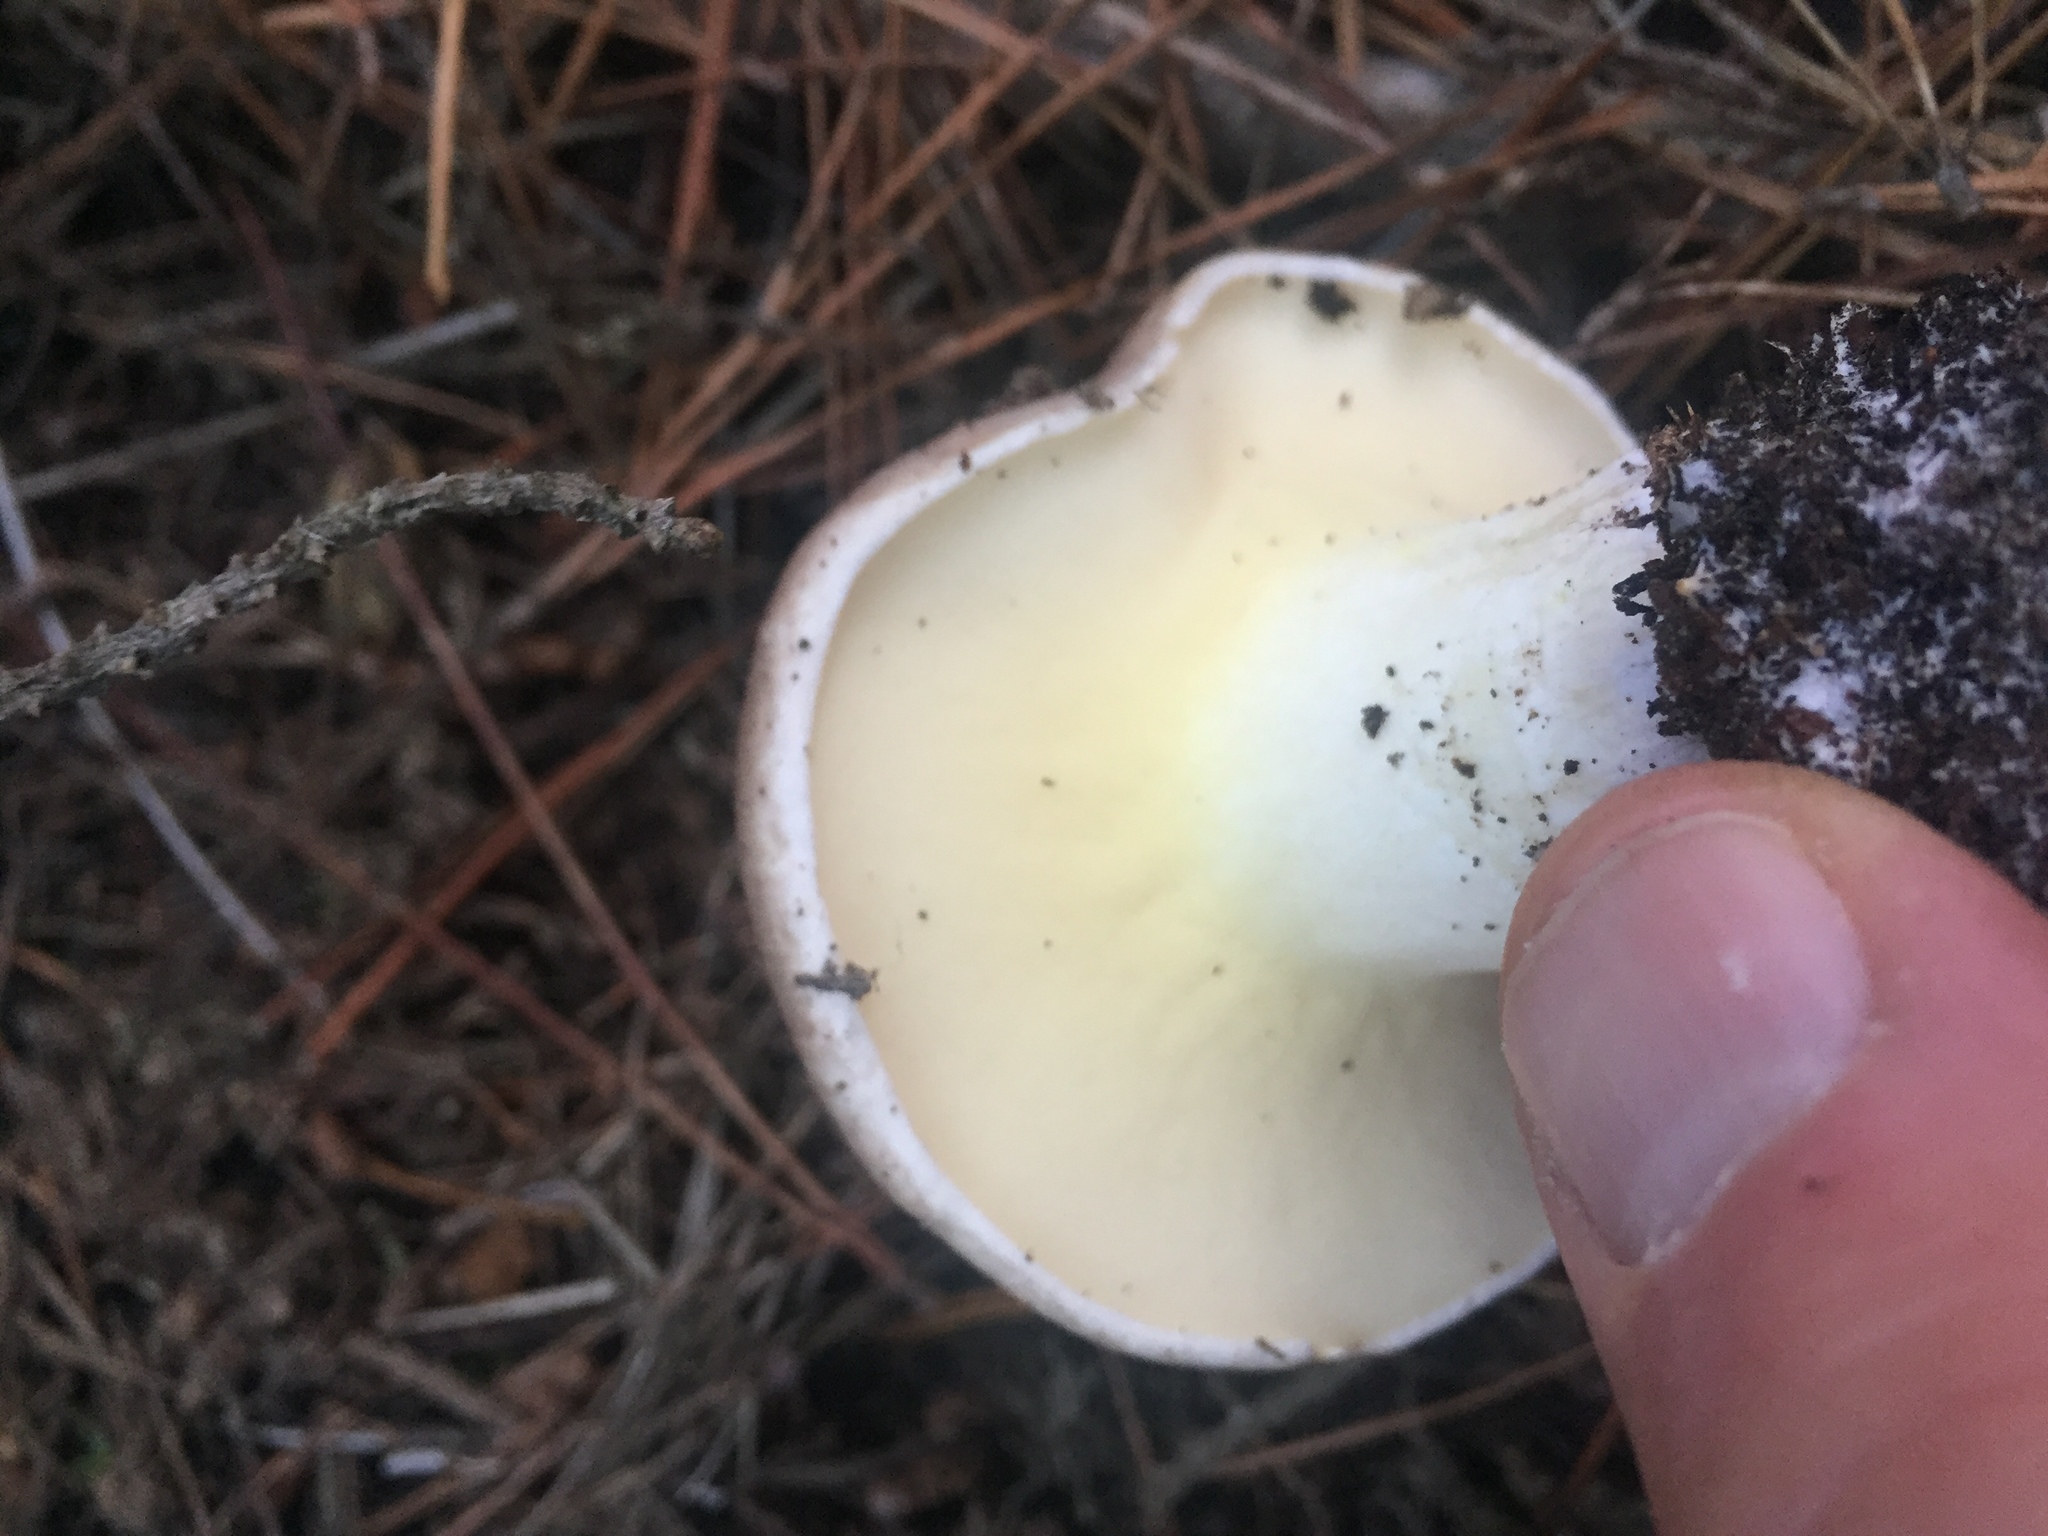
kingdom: Fungi
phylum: Basidiomycota
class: Agaricomycetes
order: Boletales
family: Suillaceae
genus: Suillus
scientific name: Suillus pungens
